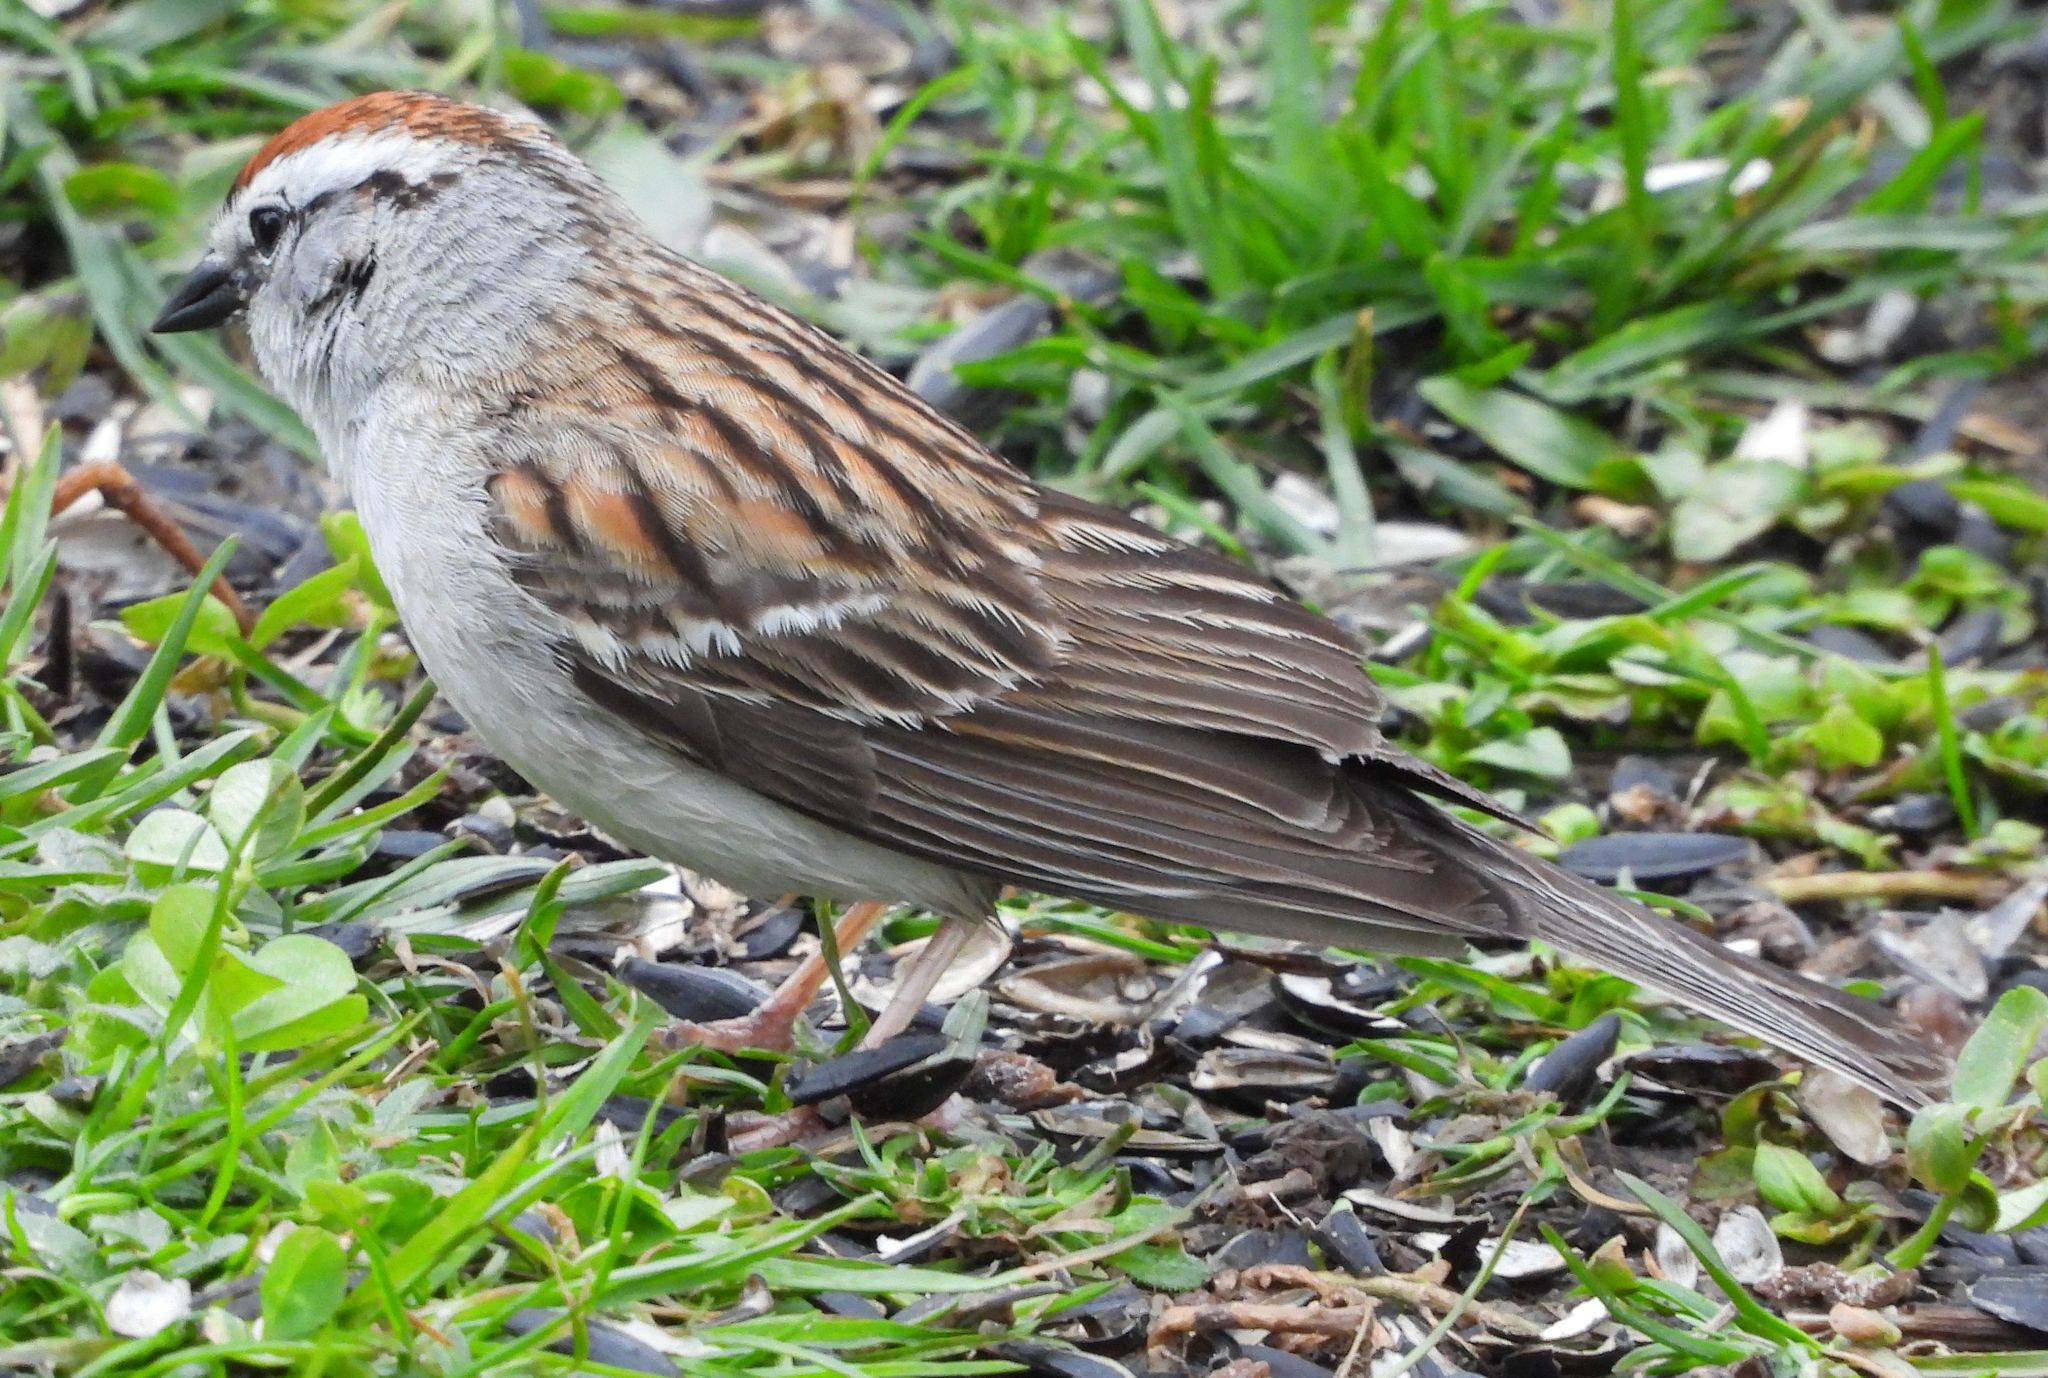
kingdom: Animalia
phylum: Chordata
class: Aves
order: Passeriformes
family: Passerellidae
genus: Spizella
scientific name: Spizella passerina
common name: Chipping sparrow
